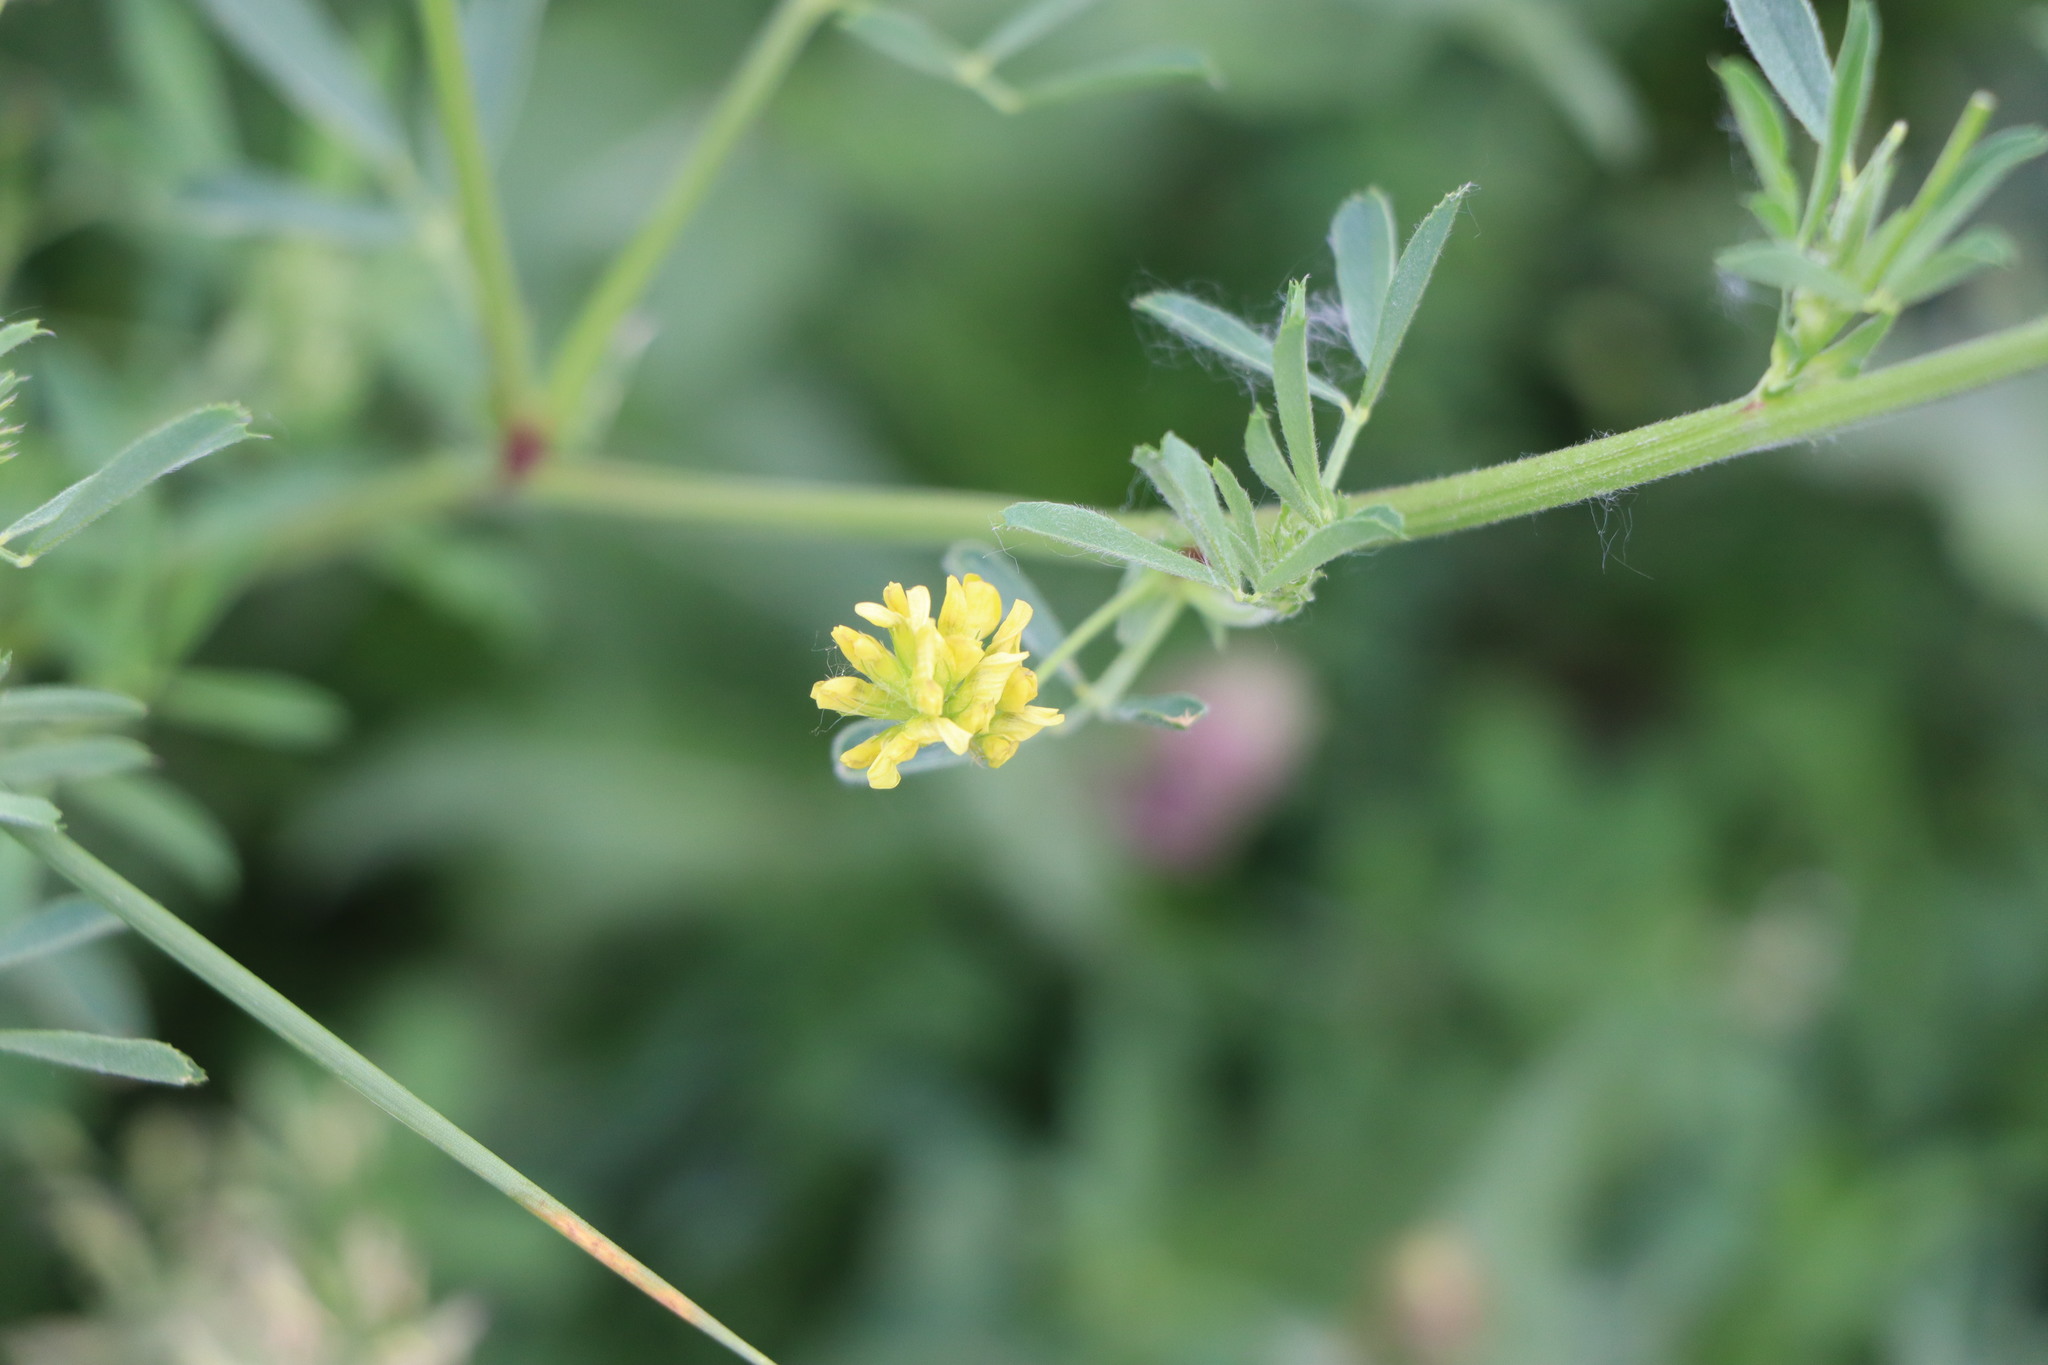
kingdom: Plantae
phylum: Tracheophyta
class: Magnoliopsida
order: Fabales
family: Fabaceae
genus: Medicago
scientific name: Medicago falcata
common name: Sickle medick
